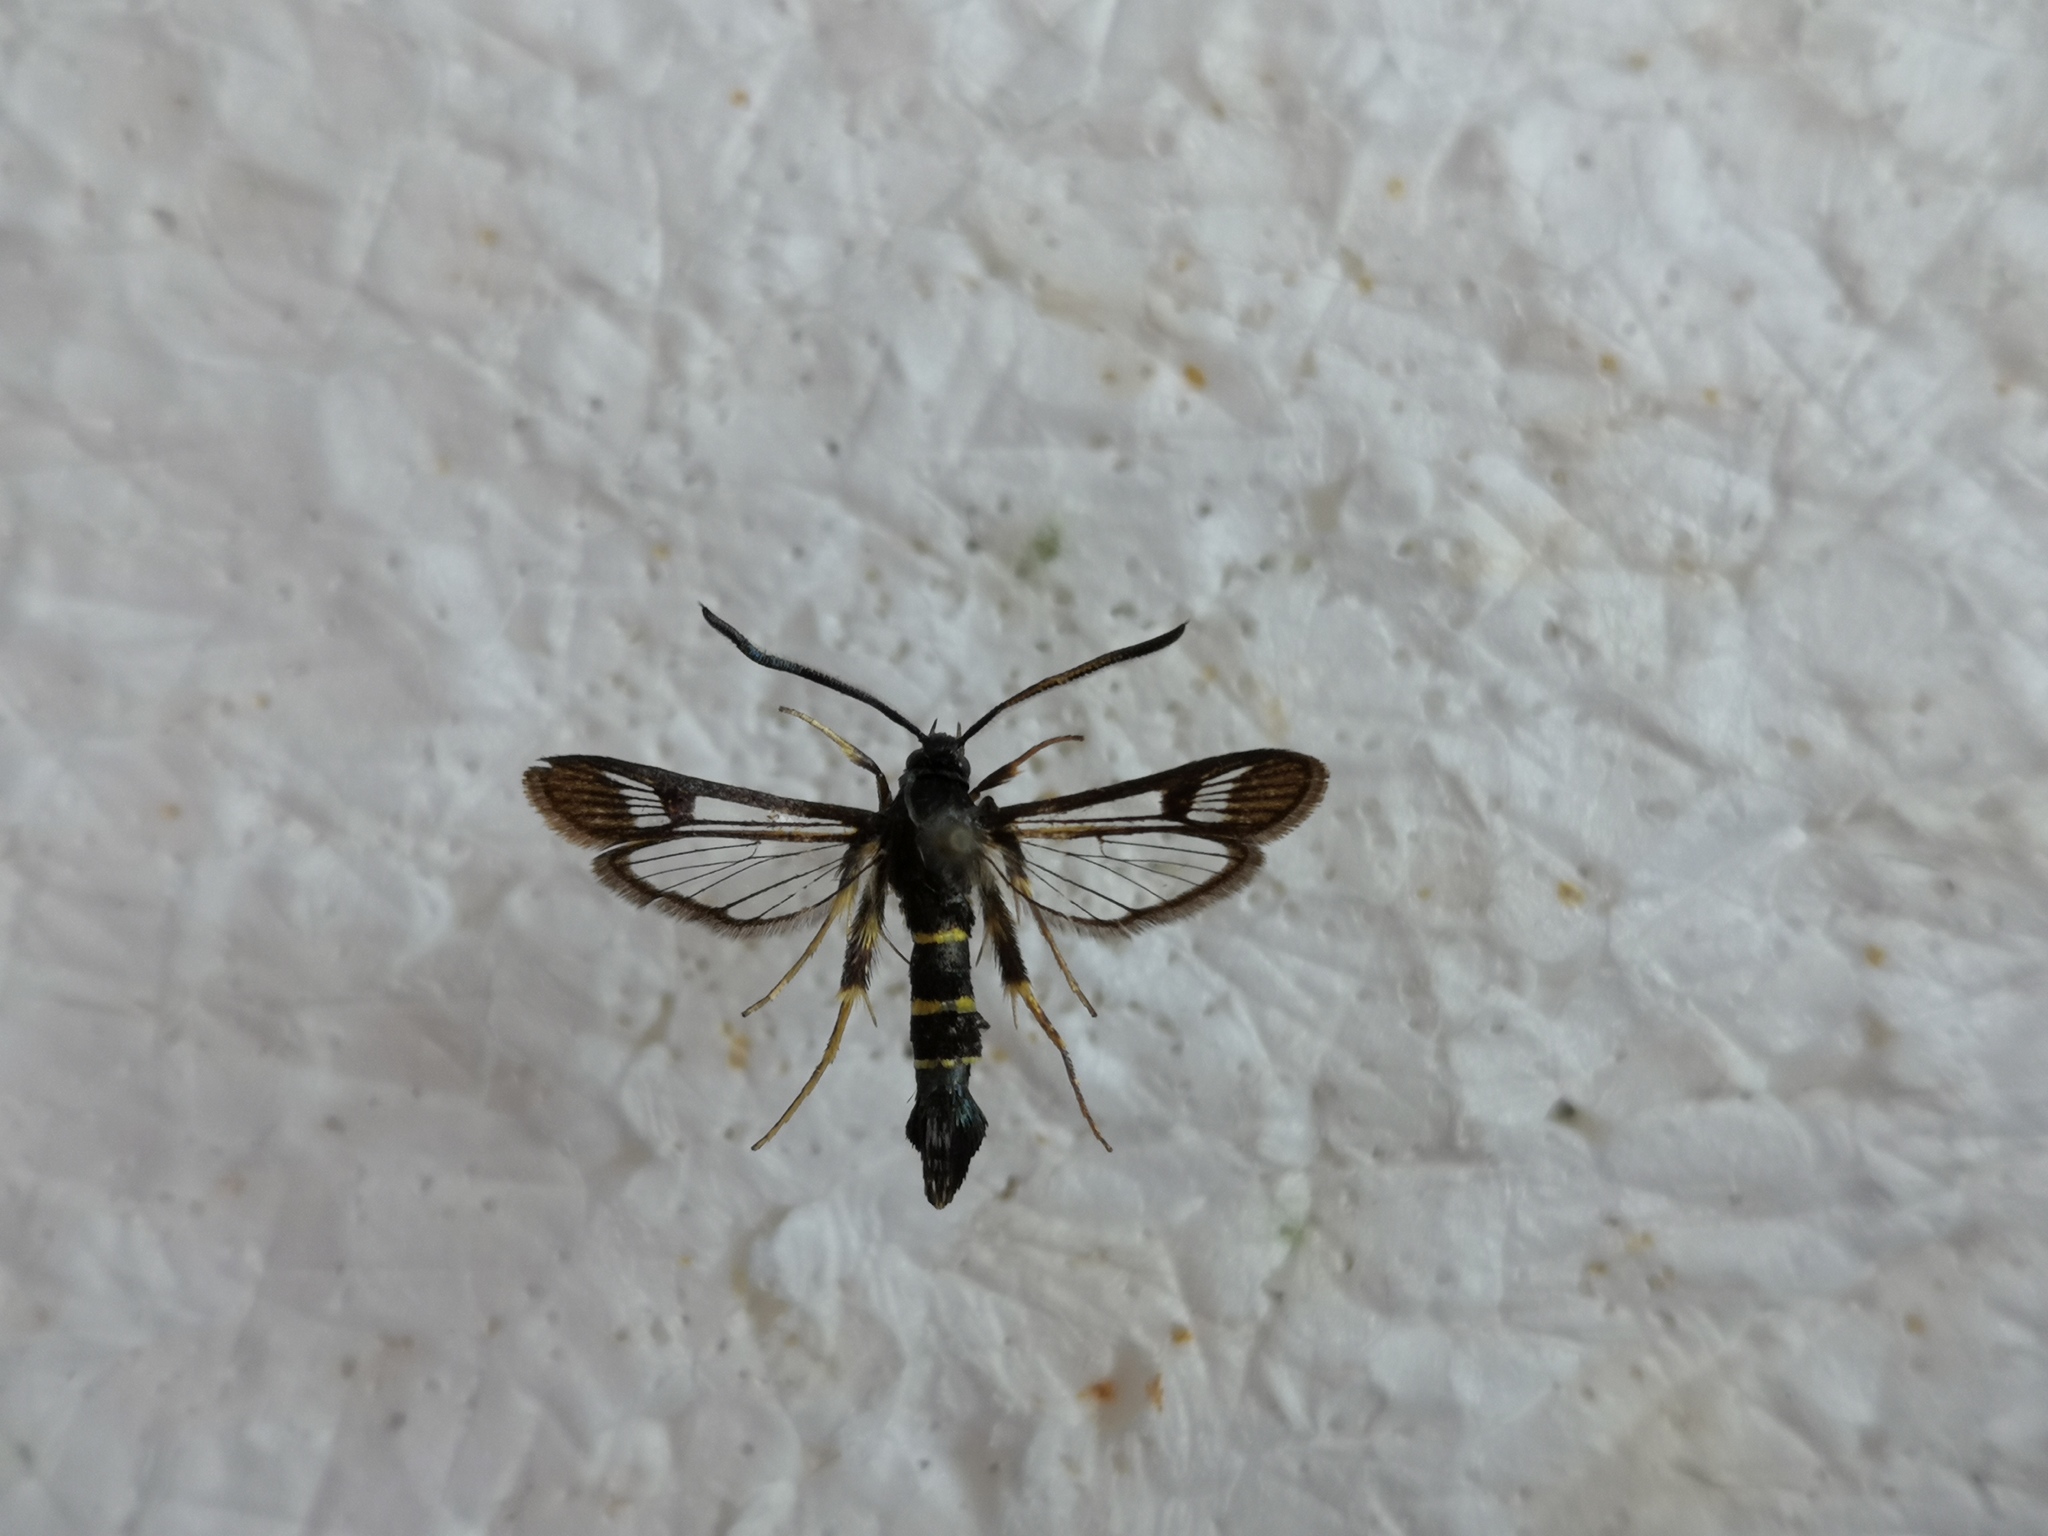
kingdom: Animalia
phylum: Arthropoda
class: Insecta
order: Lepidoptera
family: Sesiidae
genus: Synanthedon
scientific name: Synanthedon flaviventris
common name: Sallow clearwing
